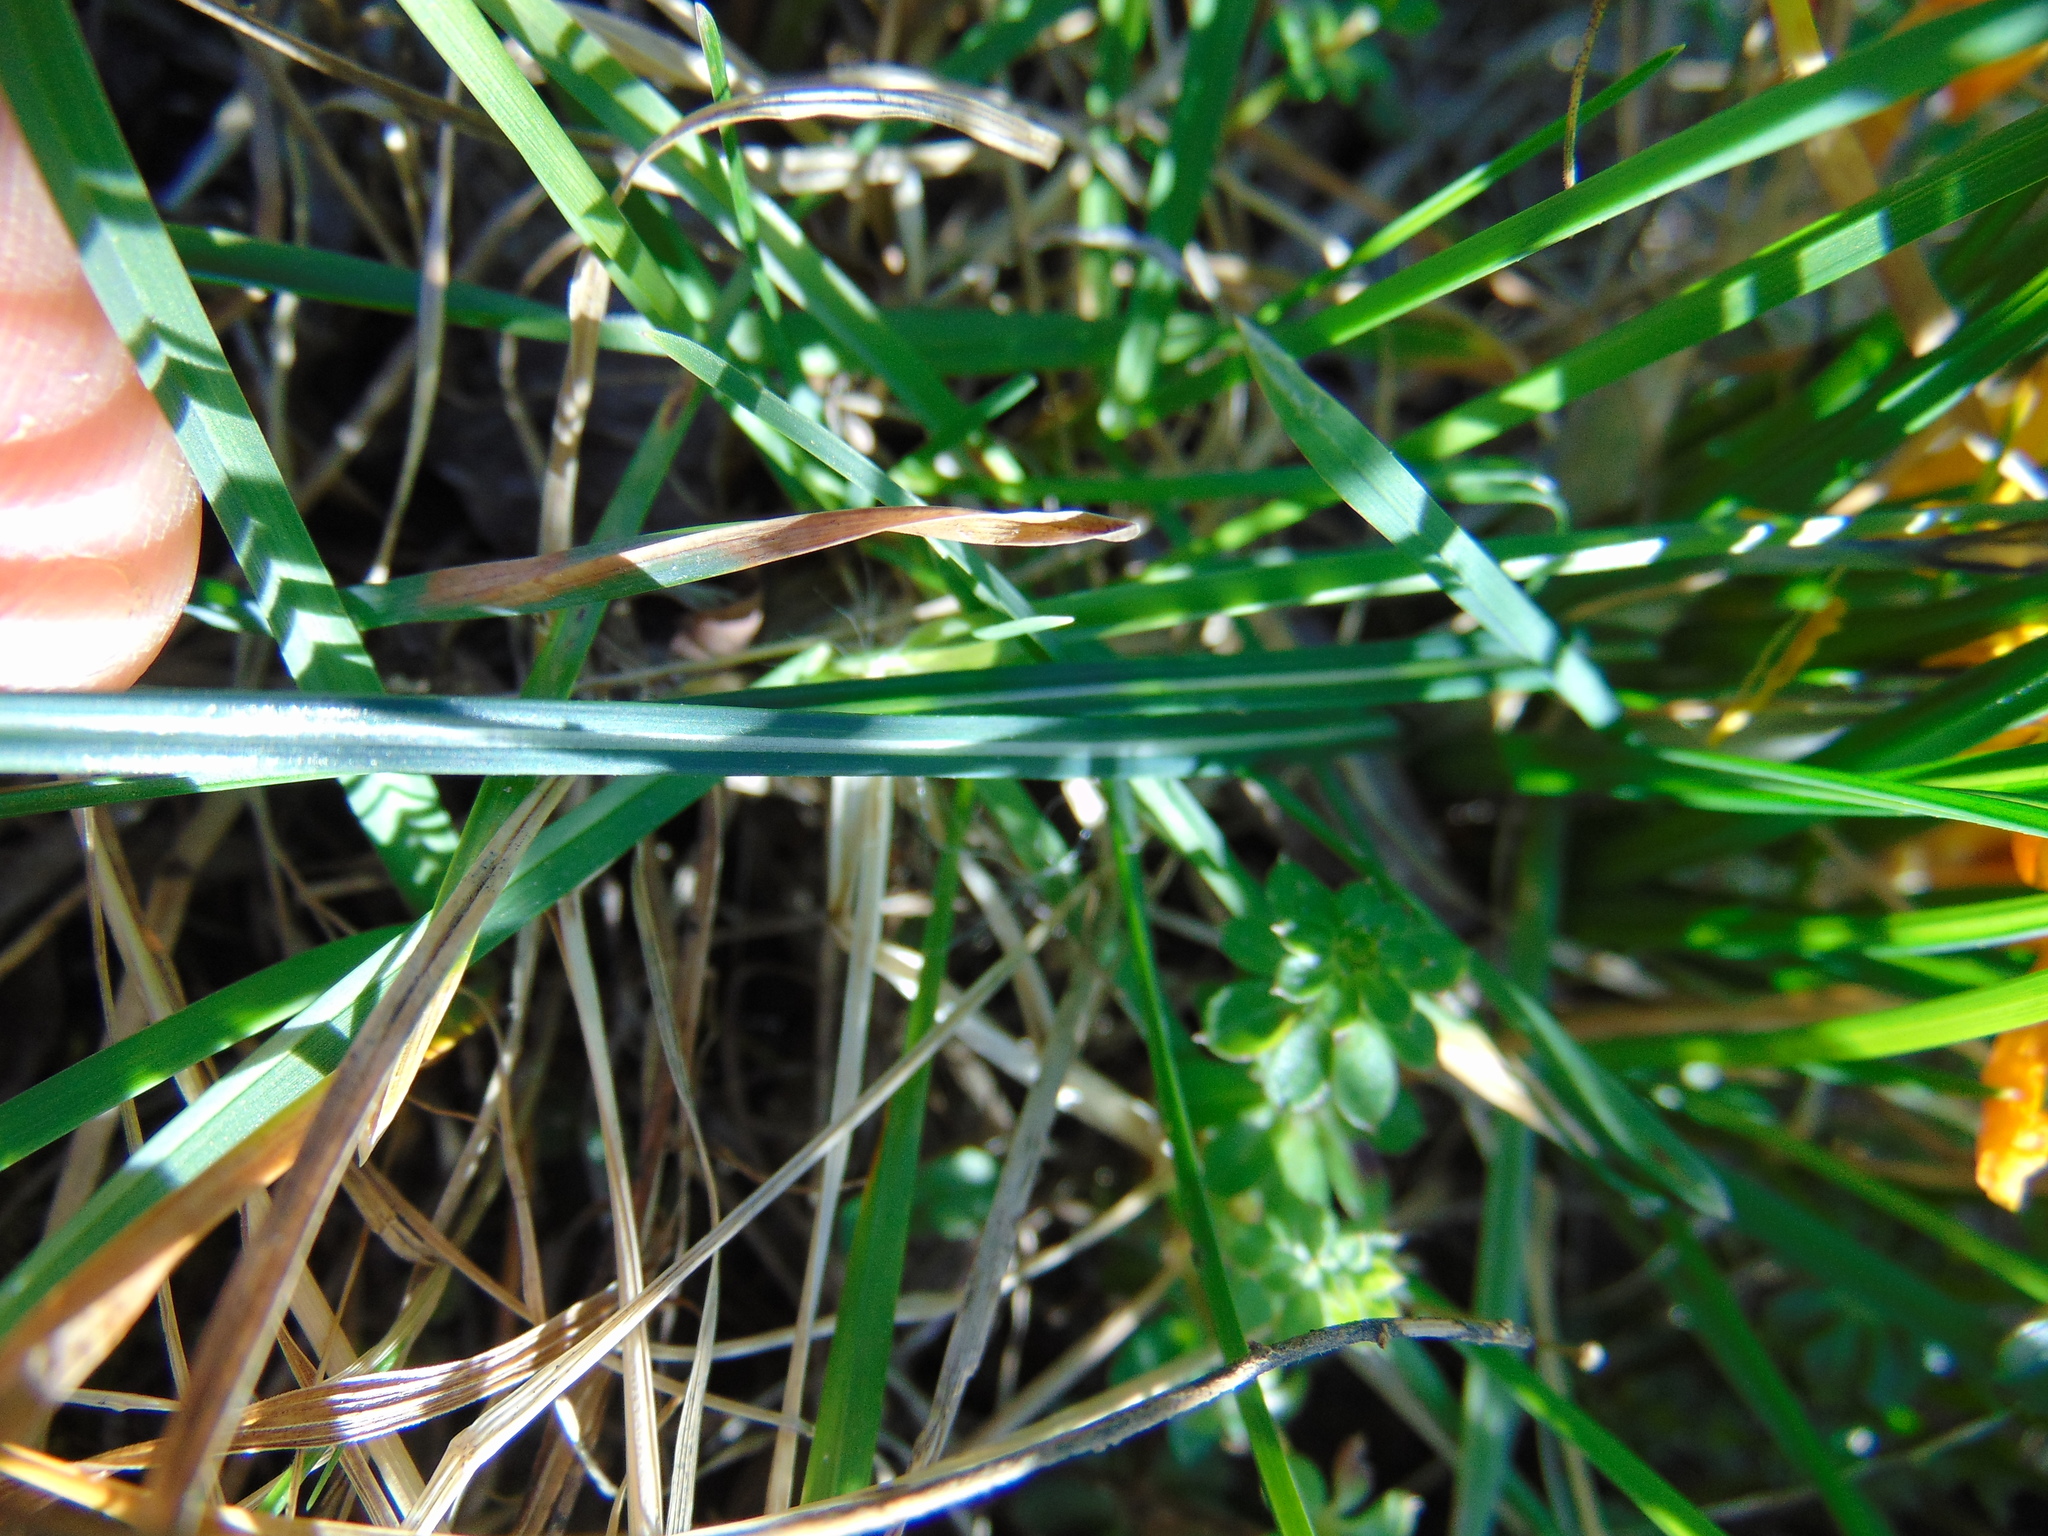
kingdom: Plantae
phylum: Tracheophyta
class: Liliopsida
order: Asparagales
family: Iridaceae
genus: Crocus
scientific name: Crocus weldenii
